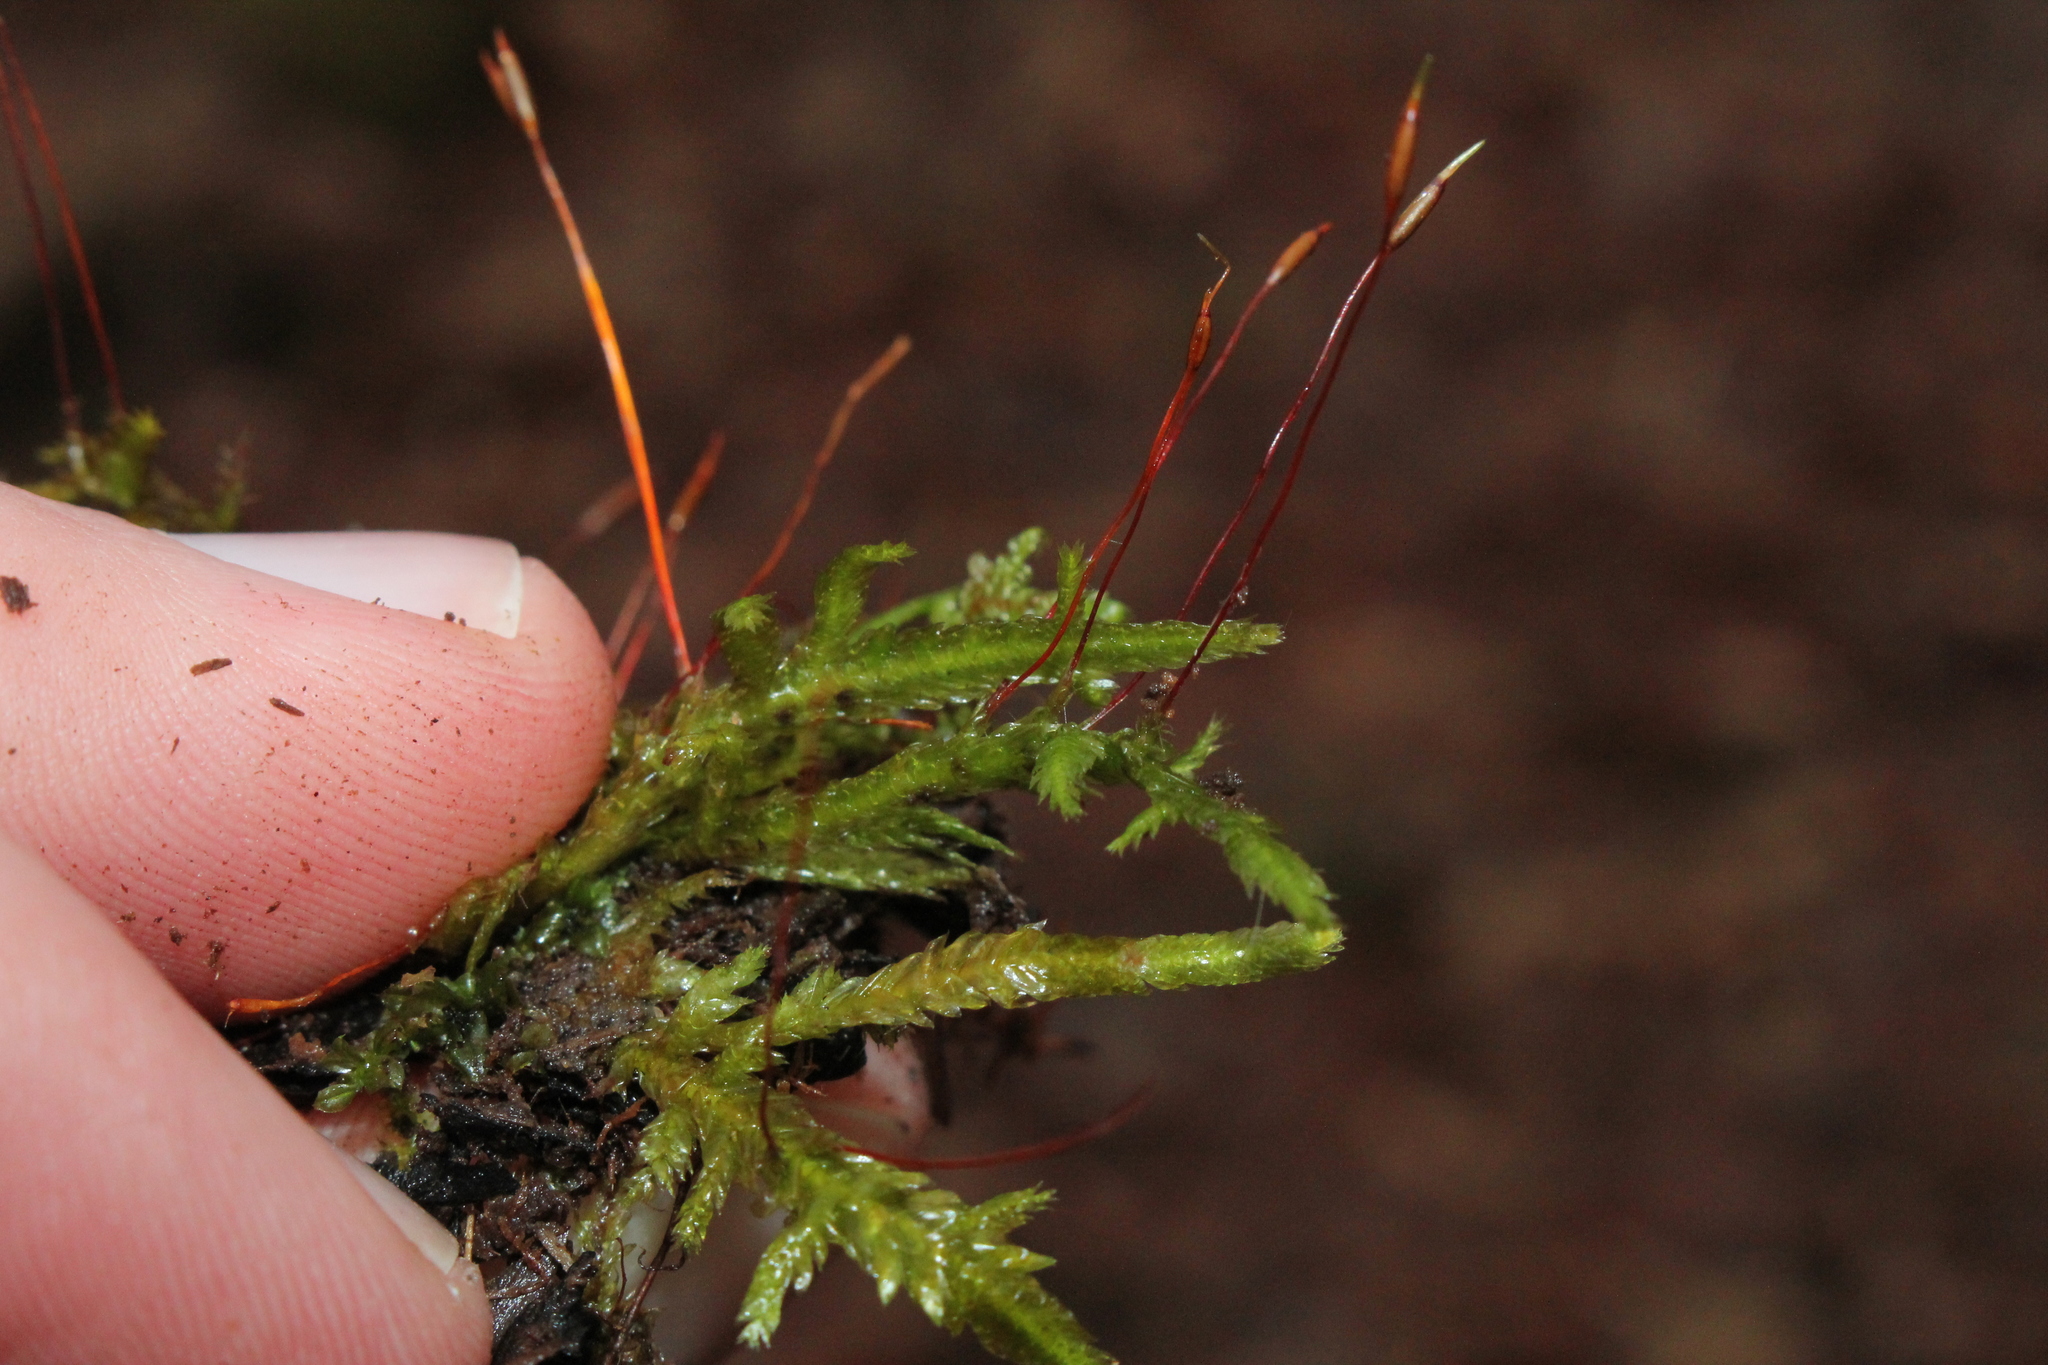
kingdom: Plantae
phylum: Bryophyta
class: Bryopsida
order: Hypnales
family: Entodontaceae
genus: Entodon
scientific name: Entodon cladorrhizans
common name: Flat-stemmed entodon moss
